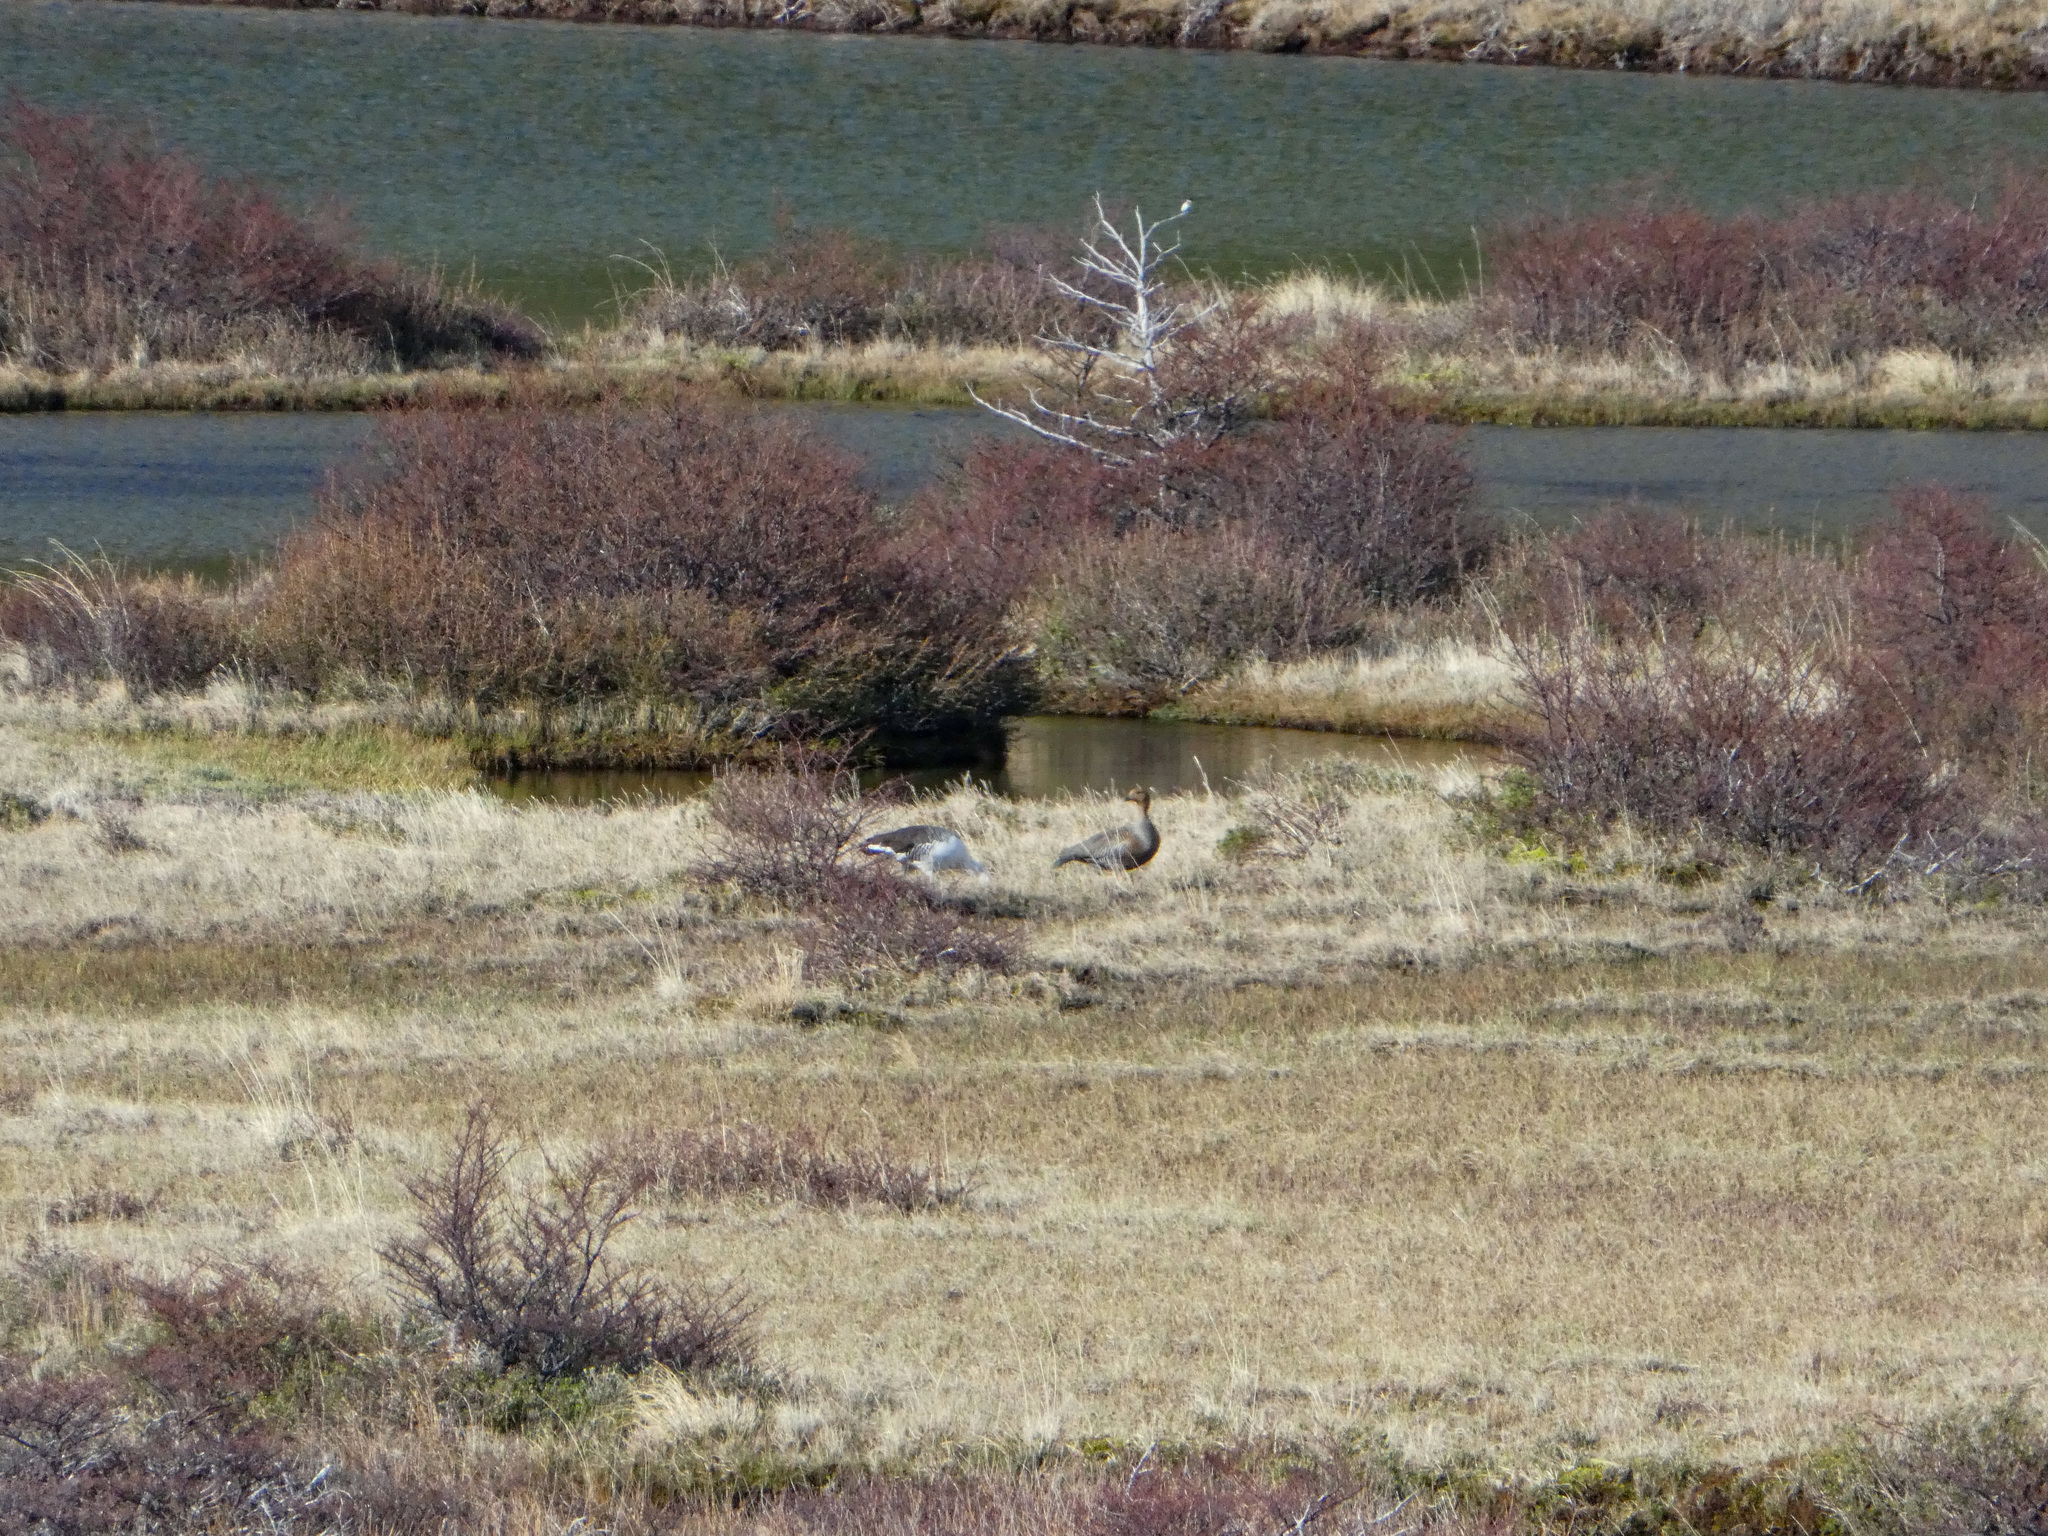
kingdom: Animalia
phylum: Chordata
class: Aves
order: Anseriformes
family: Anatidae
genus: Chloephaga
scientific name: Chloephaga picta
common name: Upland goose
